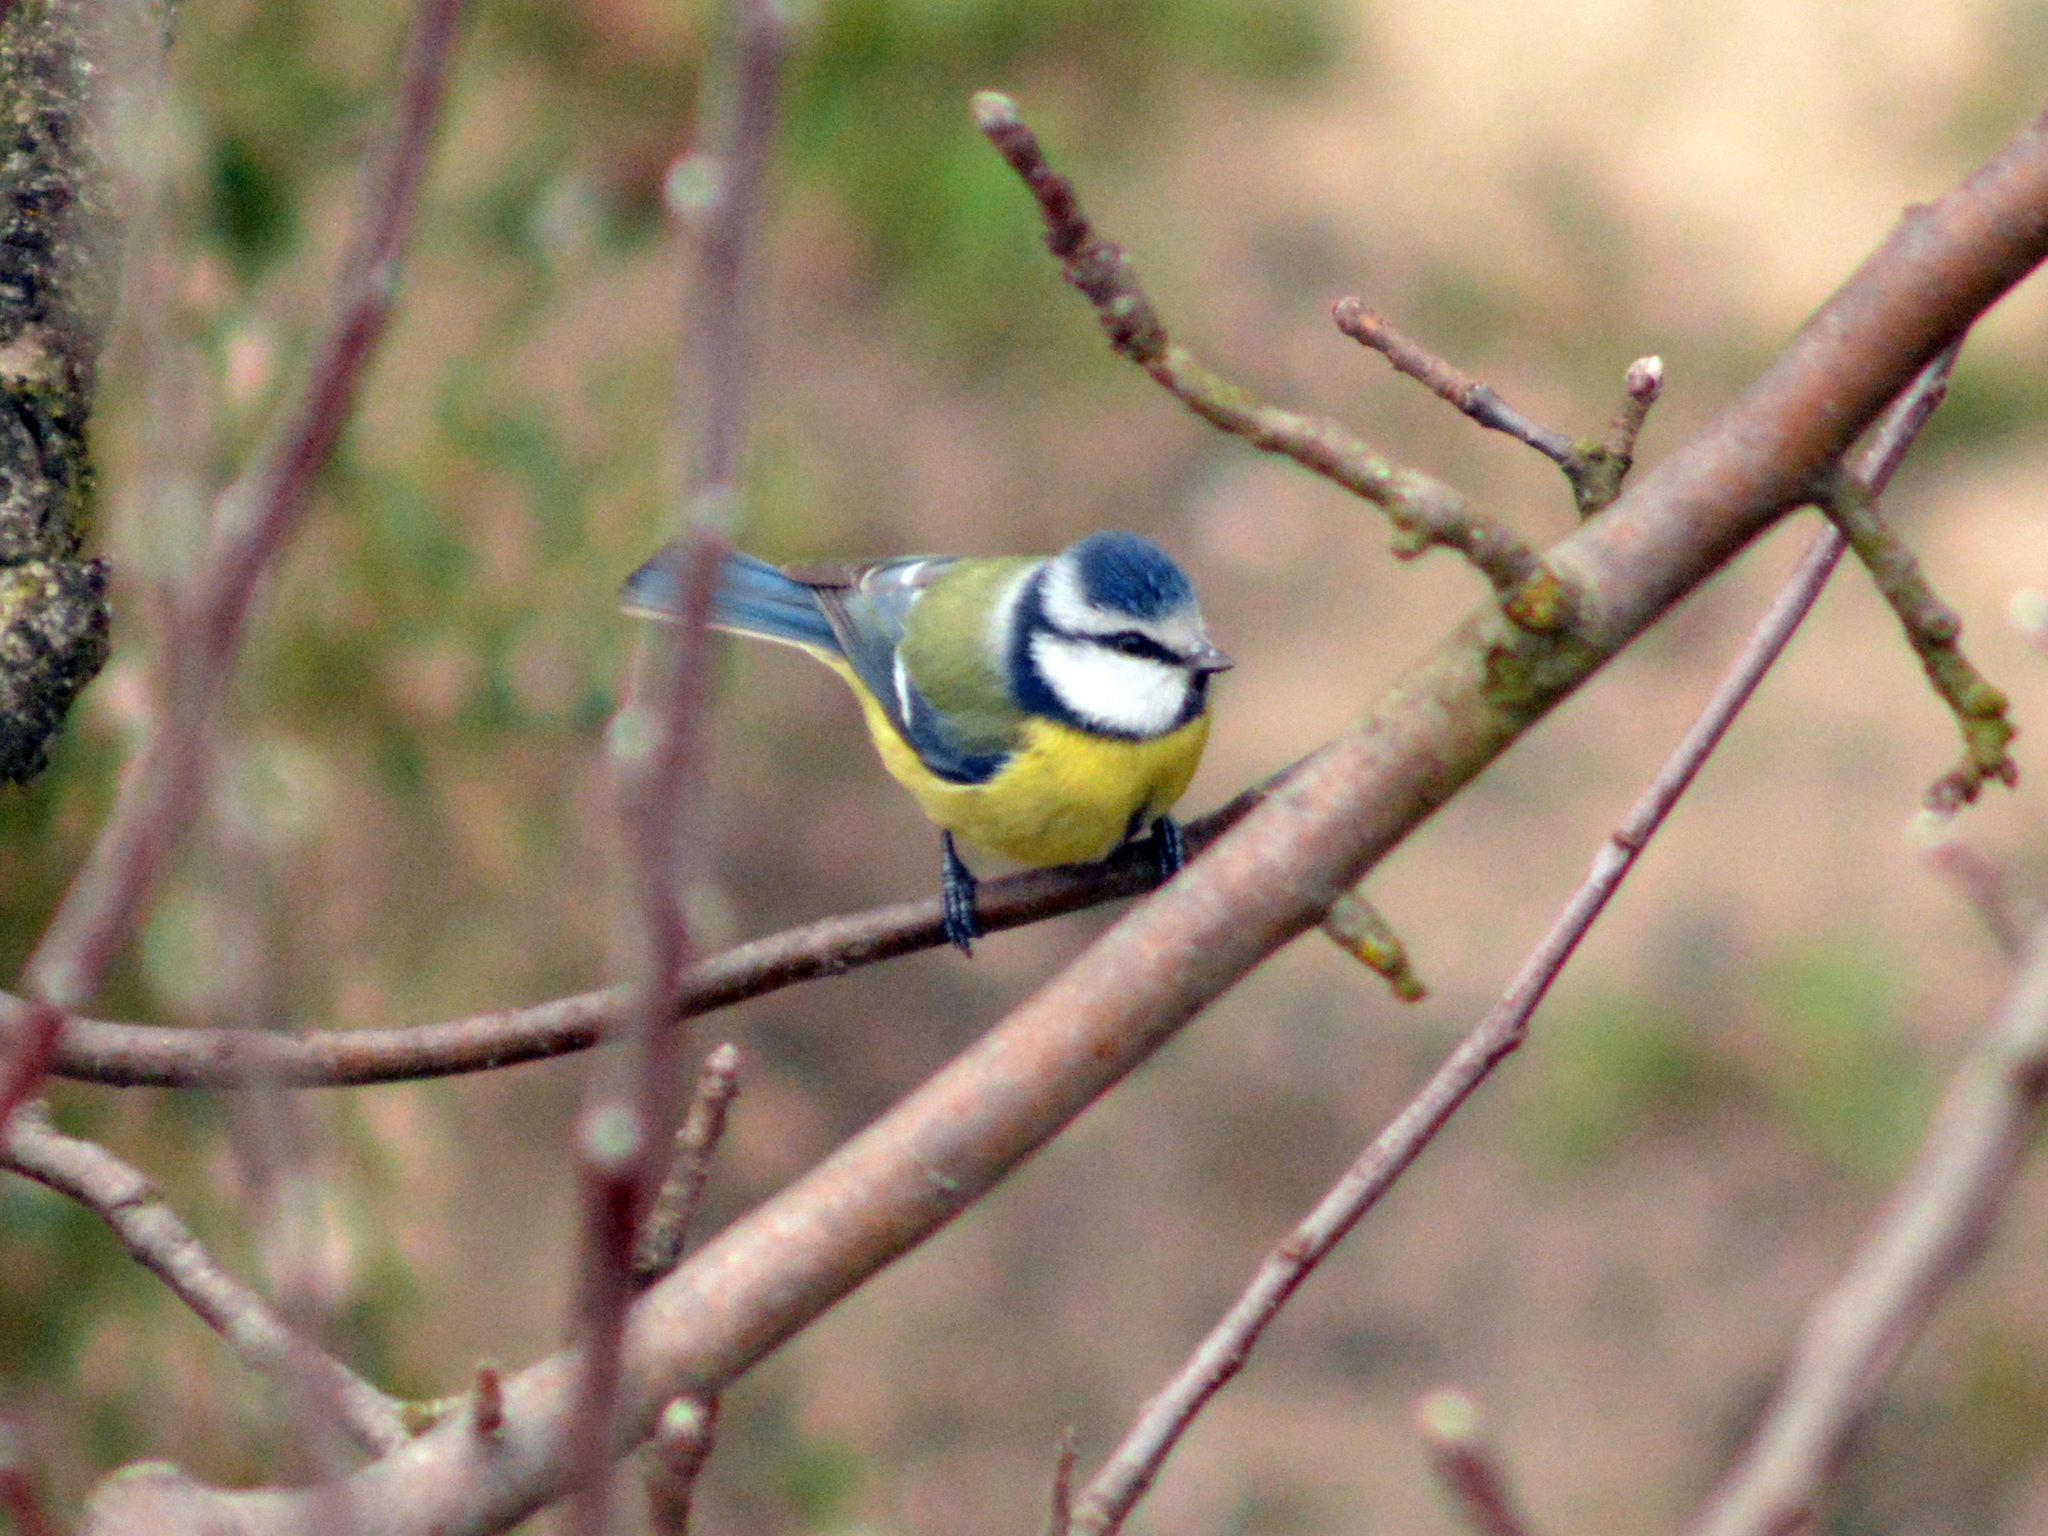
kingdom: Animalia
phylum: Chordata
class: Aves
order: Passeriformes
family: Paridae
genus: Cyanistes
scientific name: Cyanistes caeruleus
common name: Eurasian blue tit
